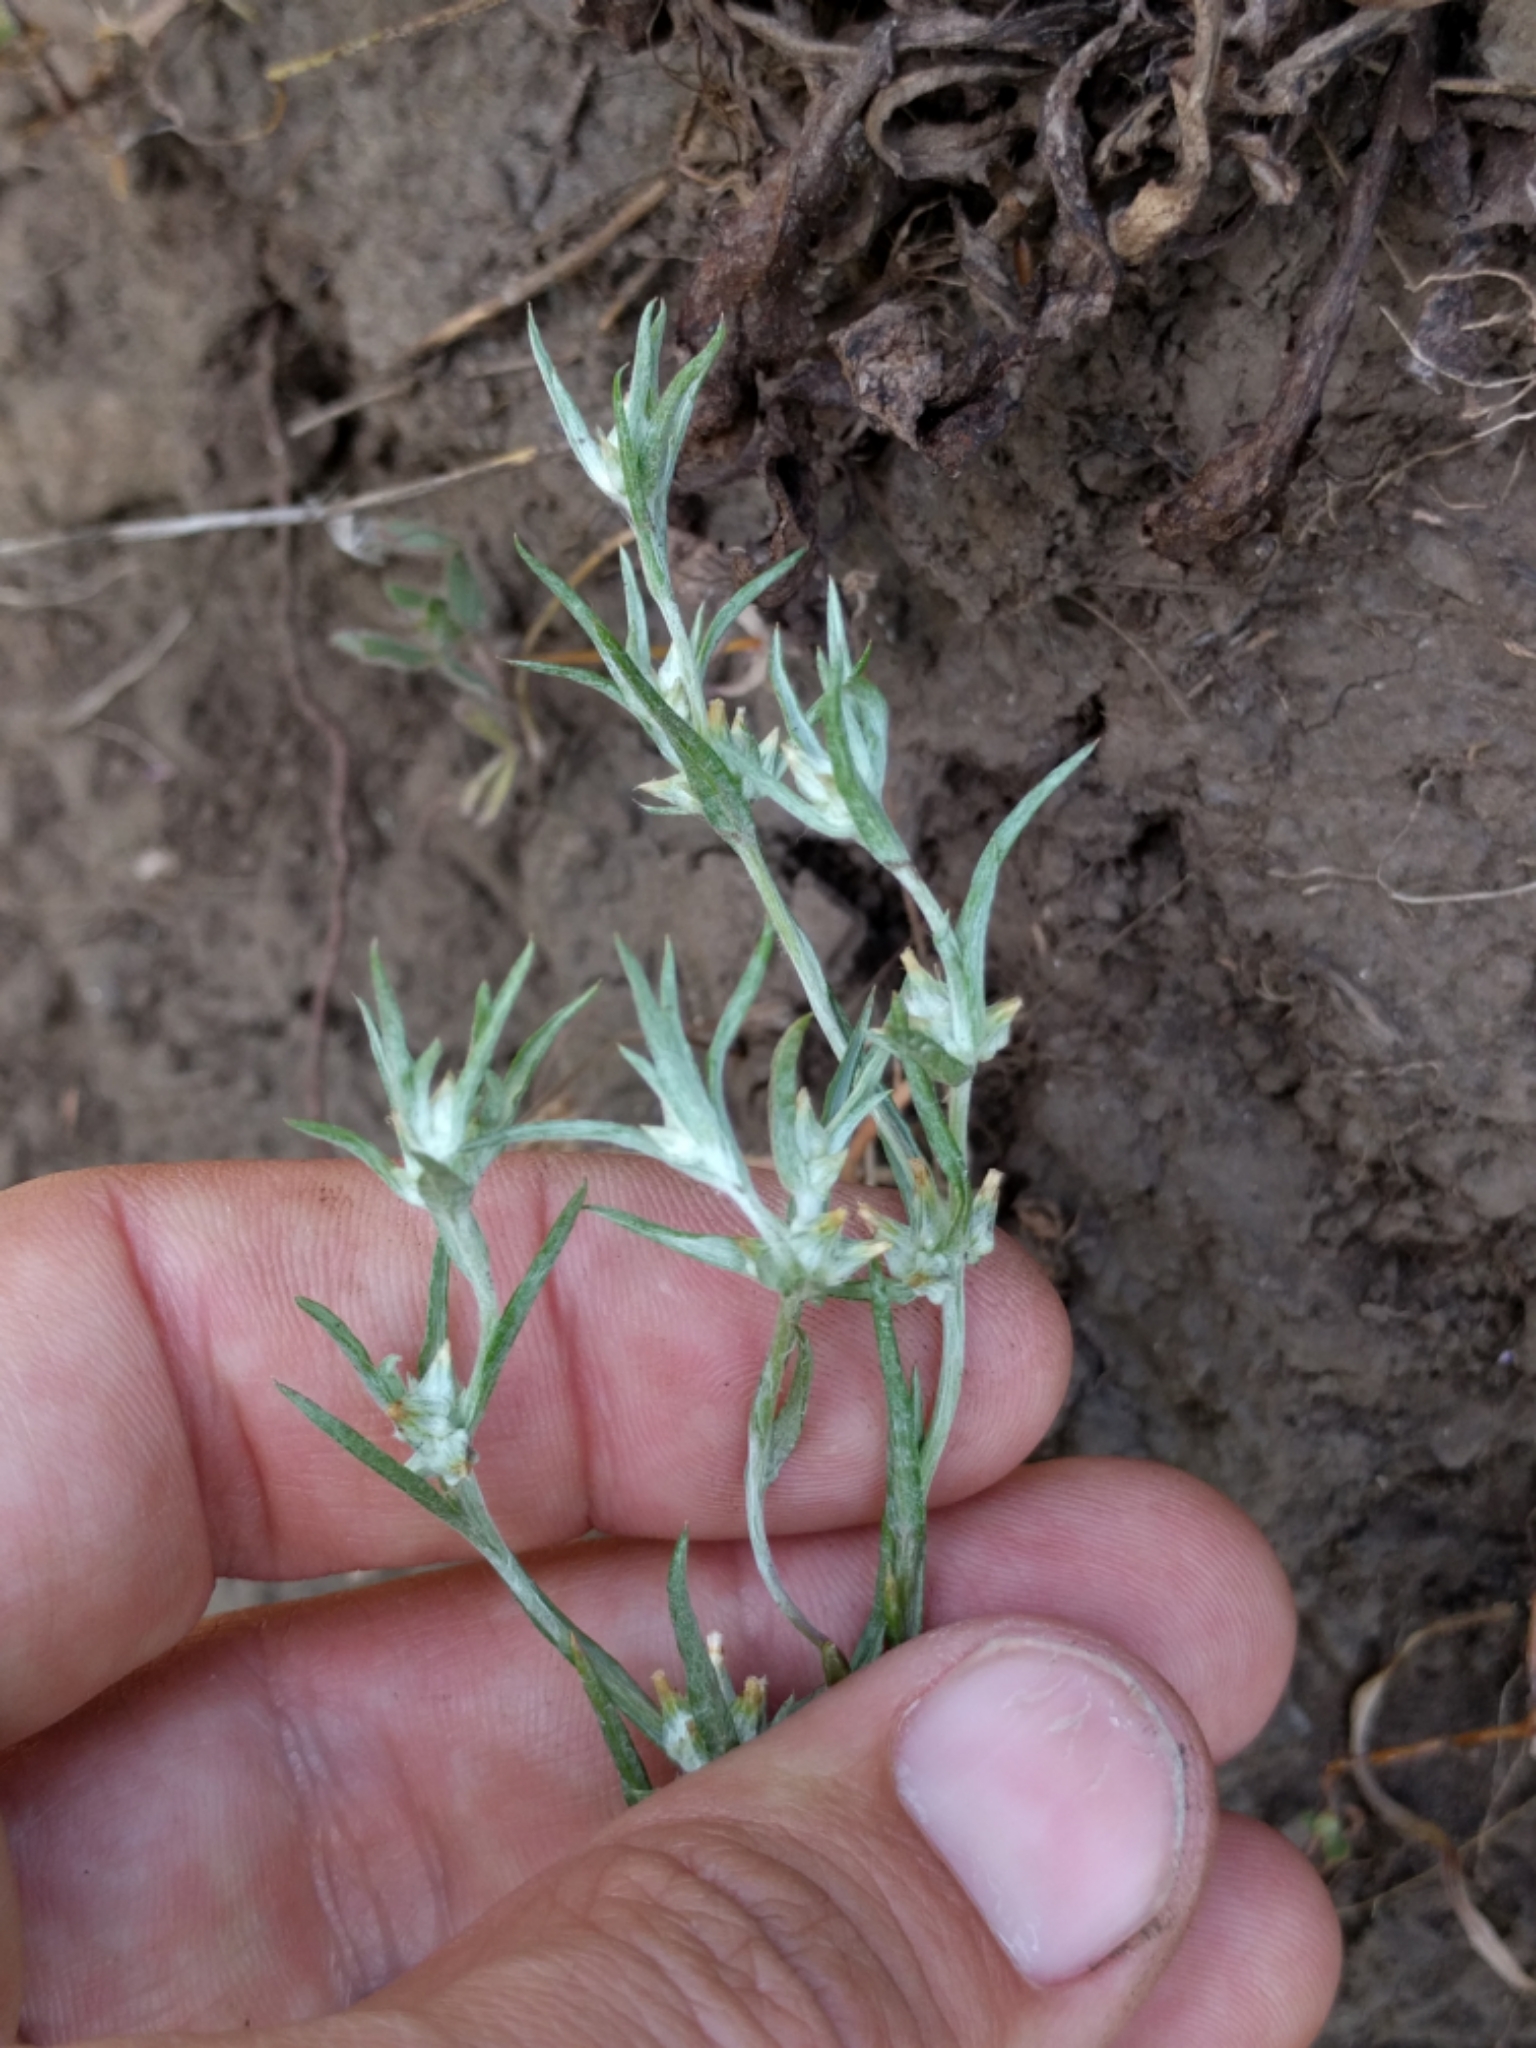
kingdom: Plantae
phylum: Tracheophyta
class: Magnoliopsida
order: Asterales
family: Asteraceae
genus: Logfia
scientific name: Logfia gallica
